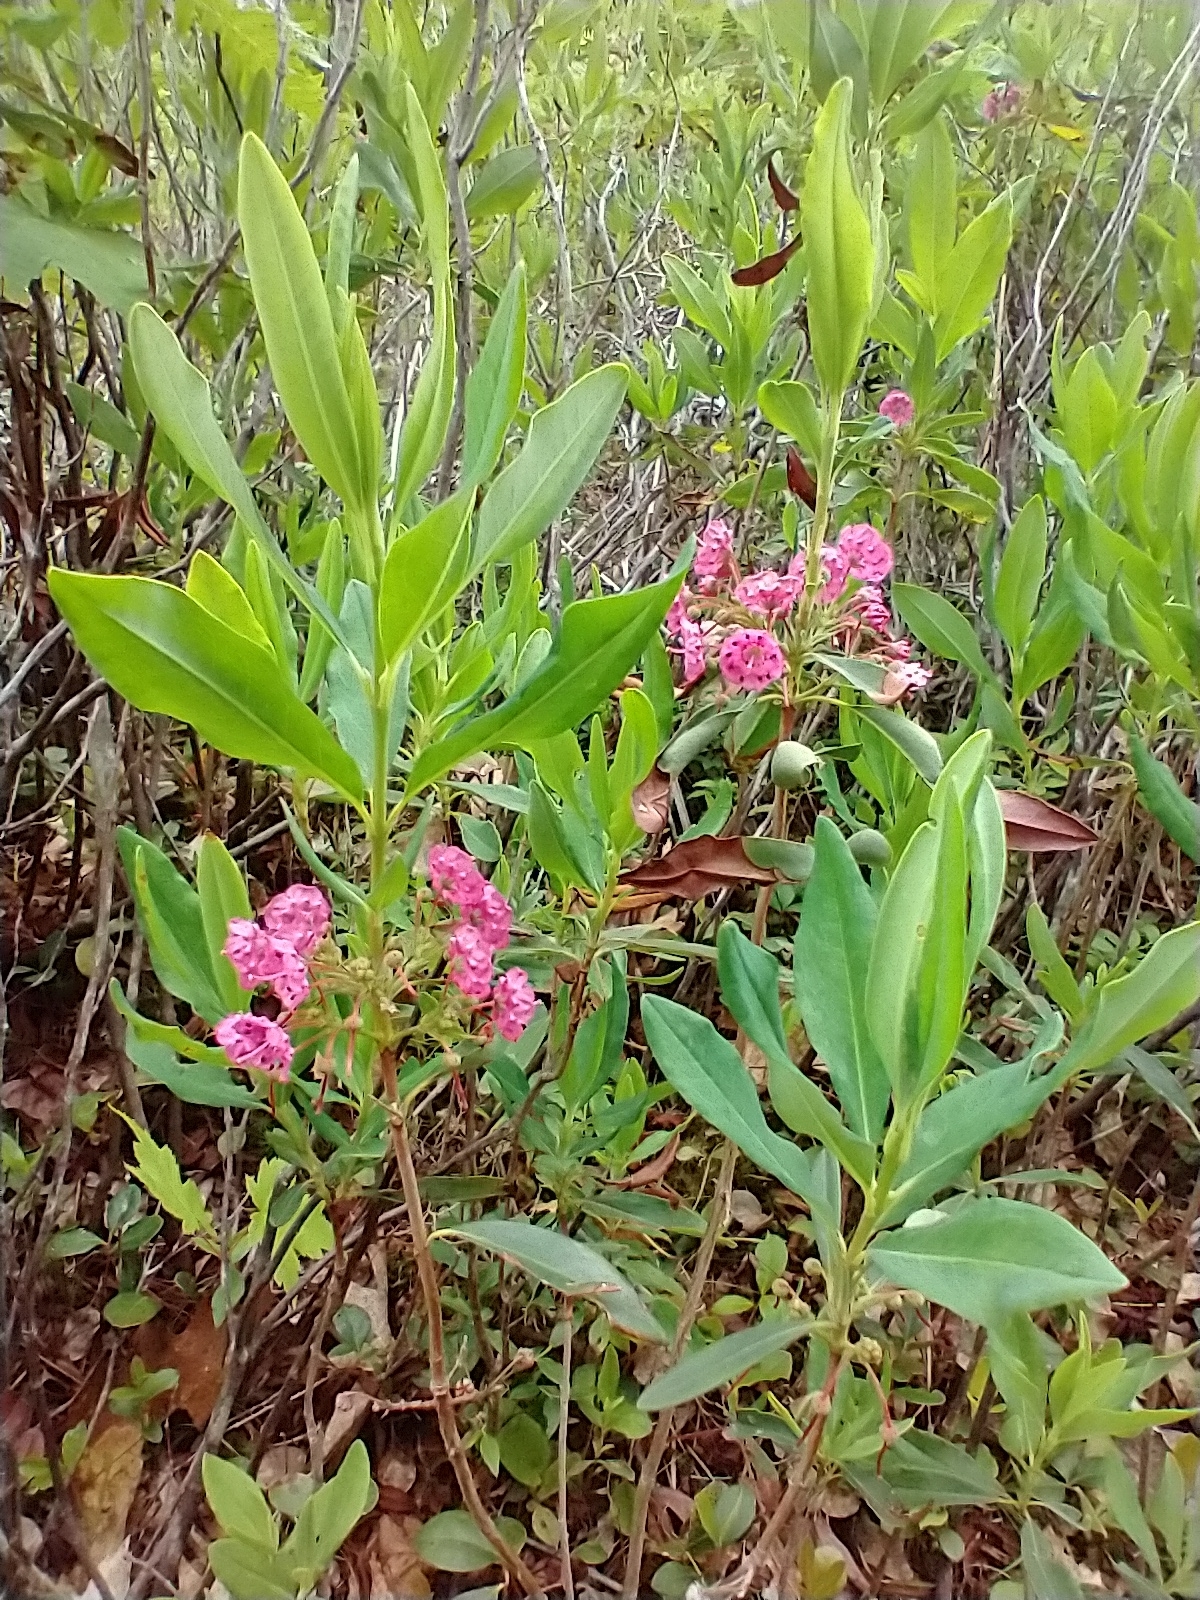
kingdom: Plantae
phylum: Tracheophyta
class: Magnoliopsida
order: Ericales
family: Ericaceae
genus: Kalmia
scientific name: Kalmia angustifolia
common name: Sheep-laurel
